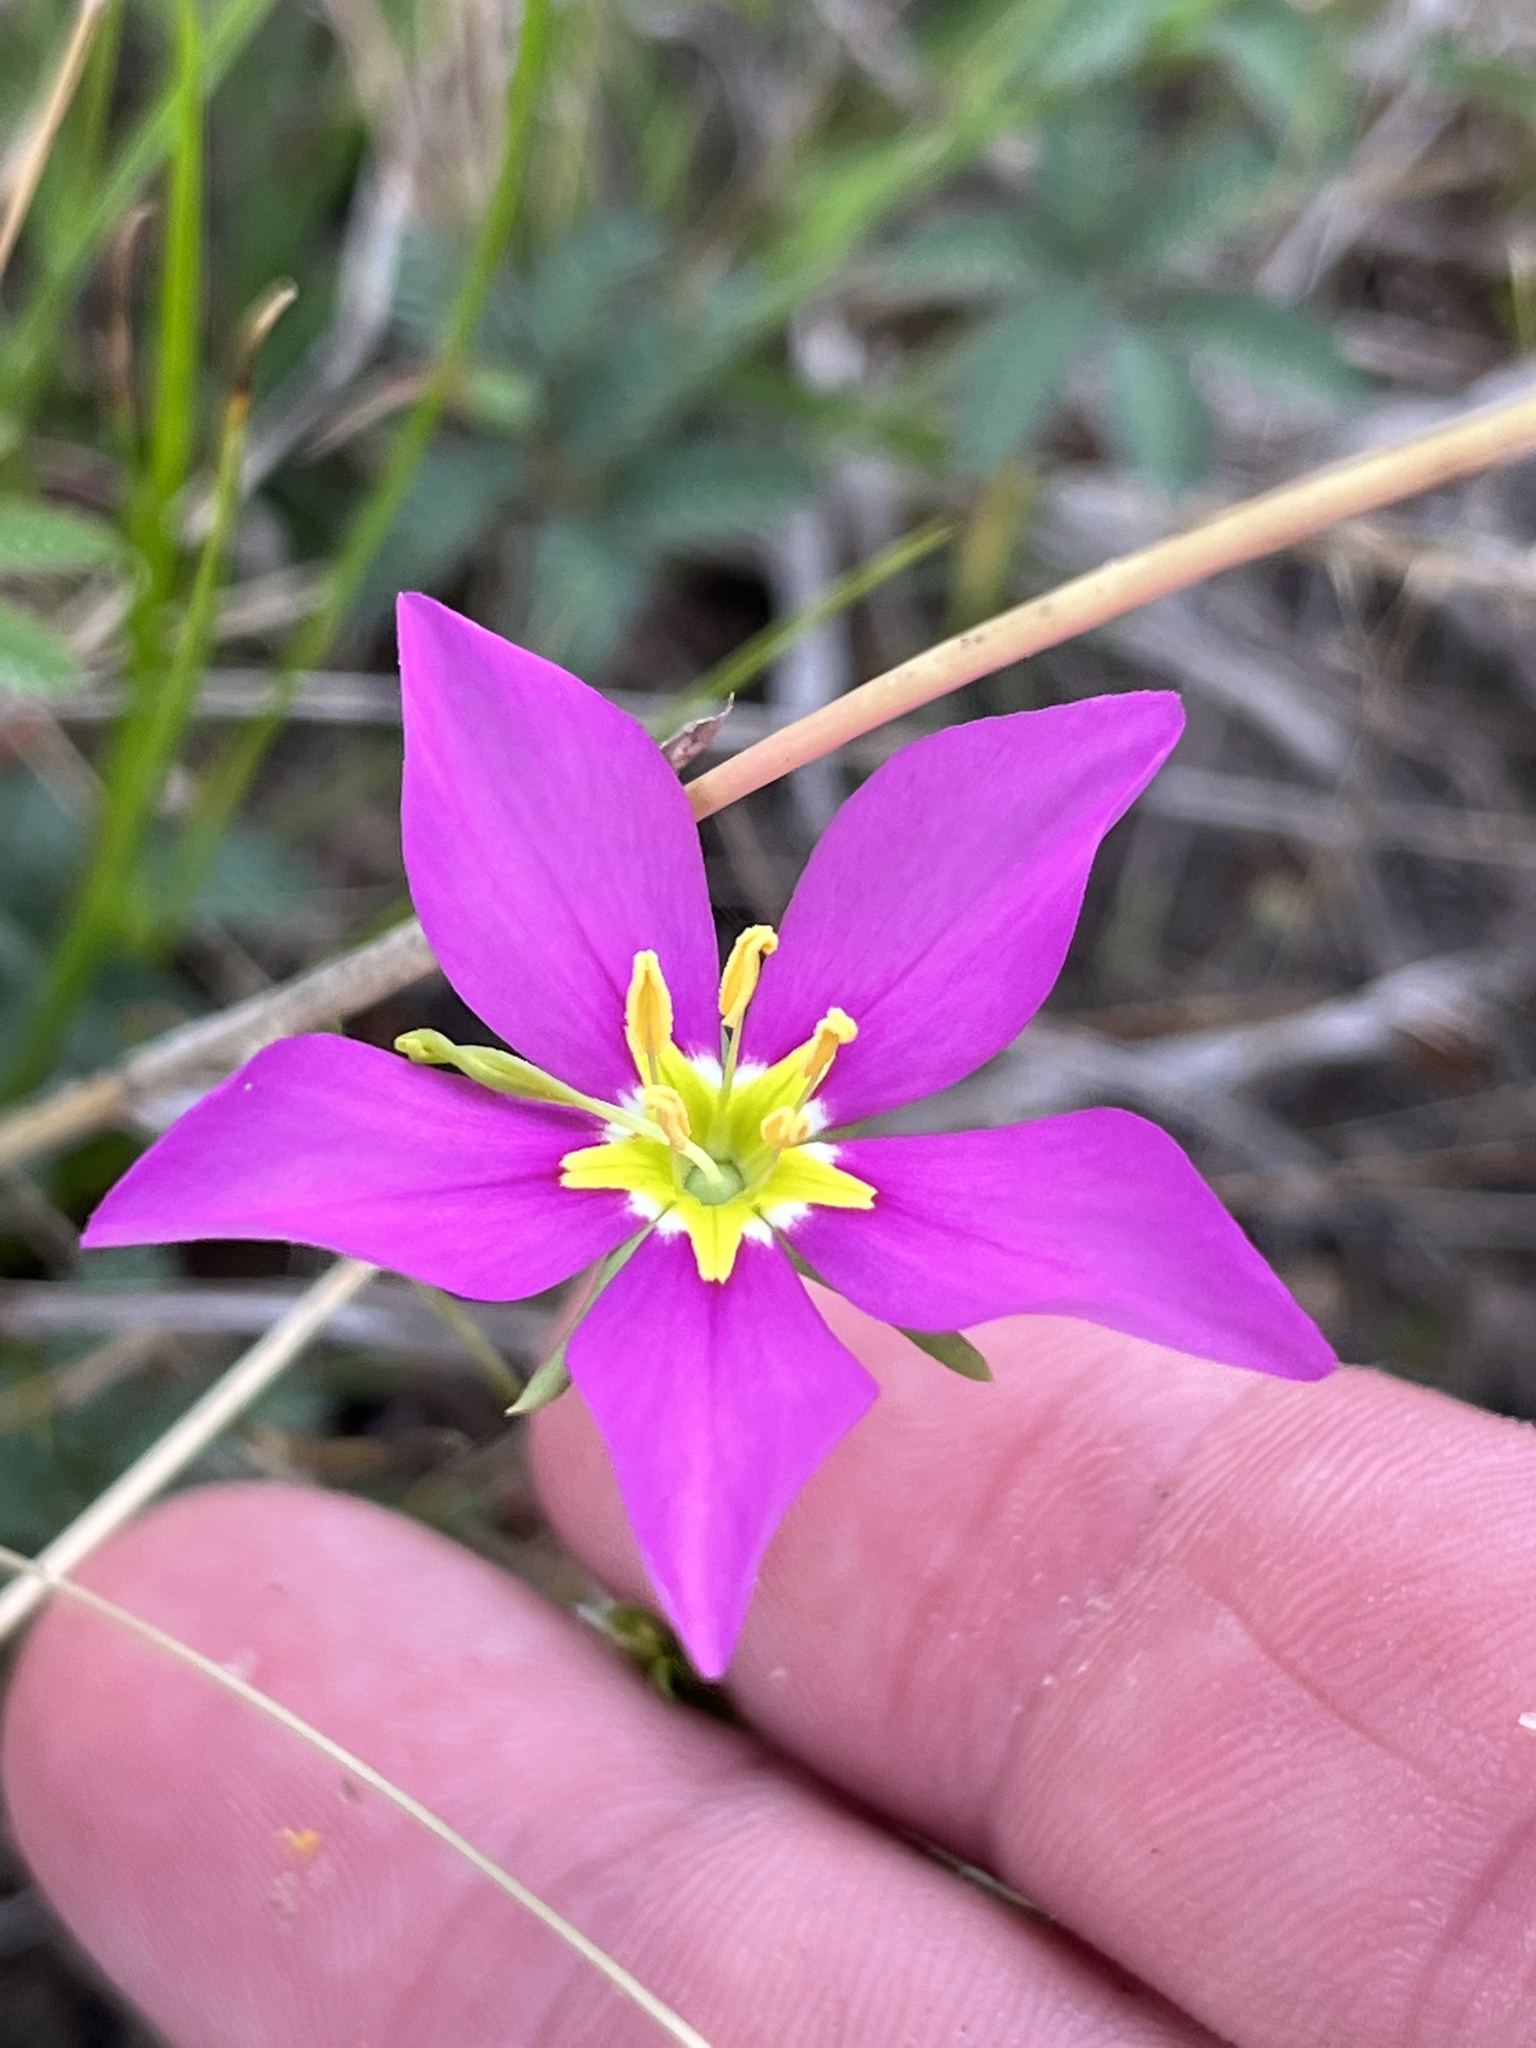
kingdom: Plantae
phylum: Tracheophyta
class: Magnoliopsida
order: Gentianales
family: Gentianaceae
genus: Sabatia
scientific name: Sabatia campestris
